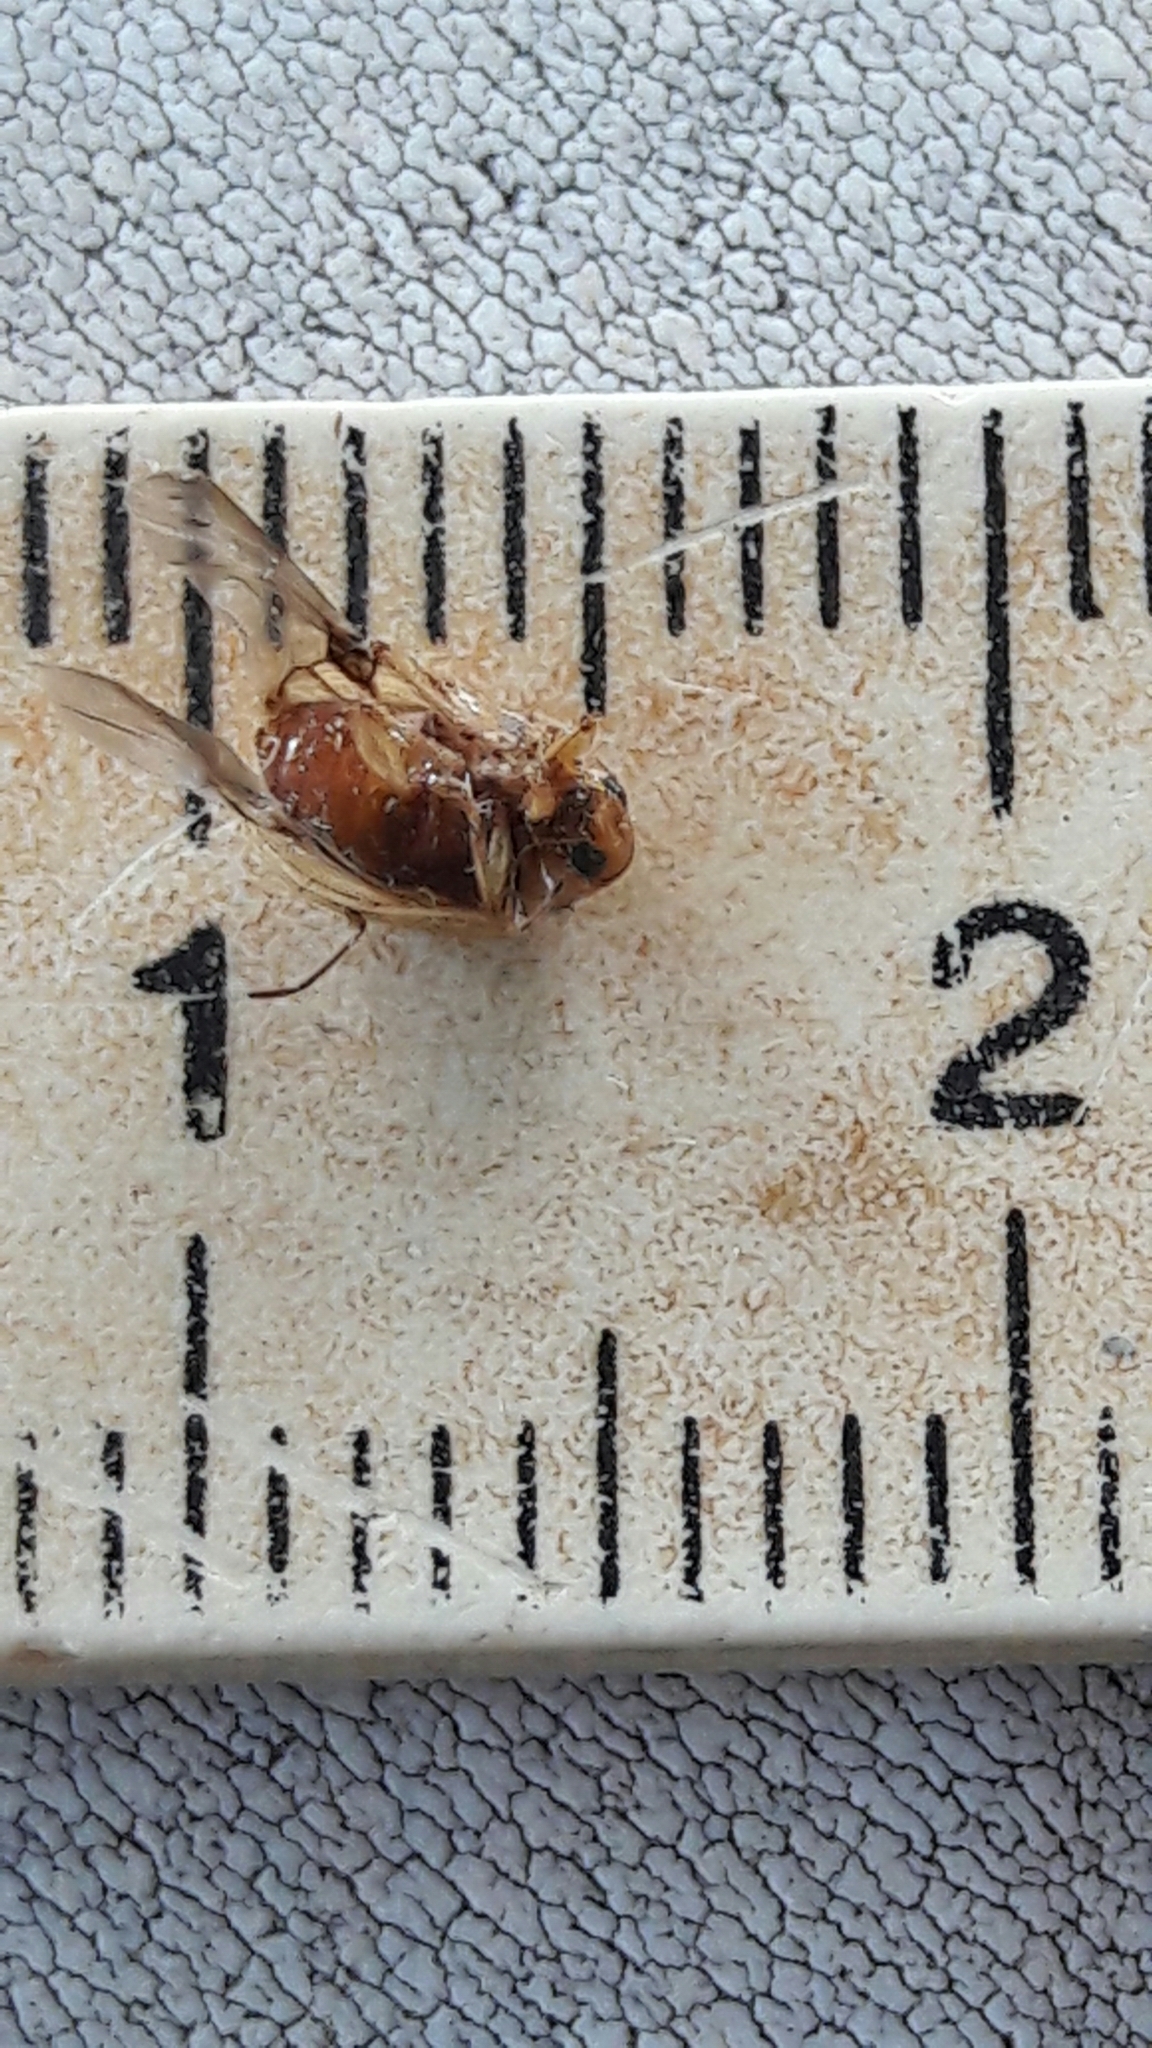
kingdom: Animalia
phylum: Arthropoda
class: Insecta
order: Coleoptera
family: Chrysomelidae
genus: Anisodera
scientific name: Anisodera ferruginea
